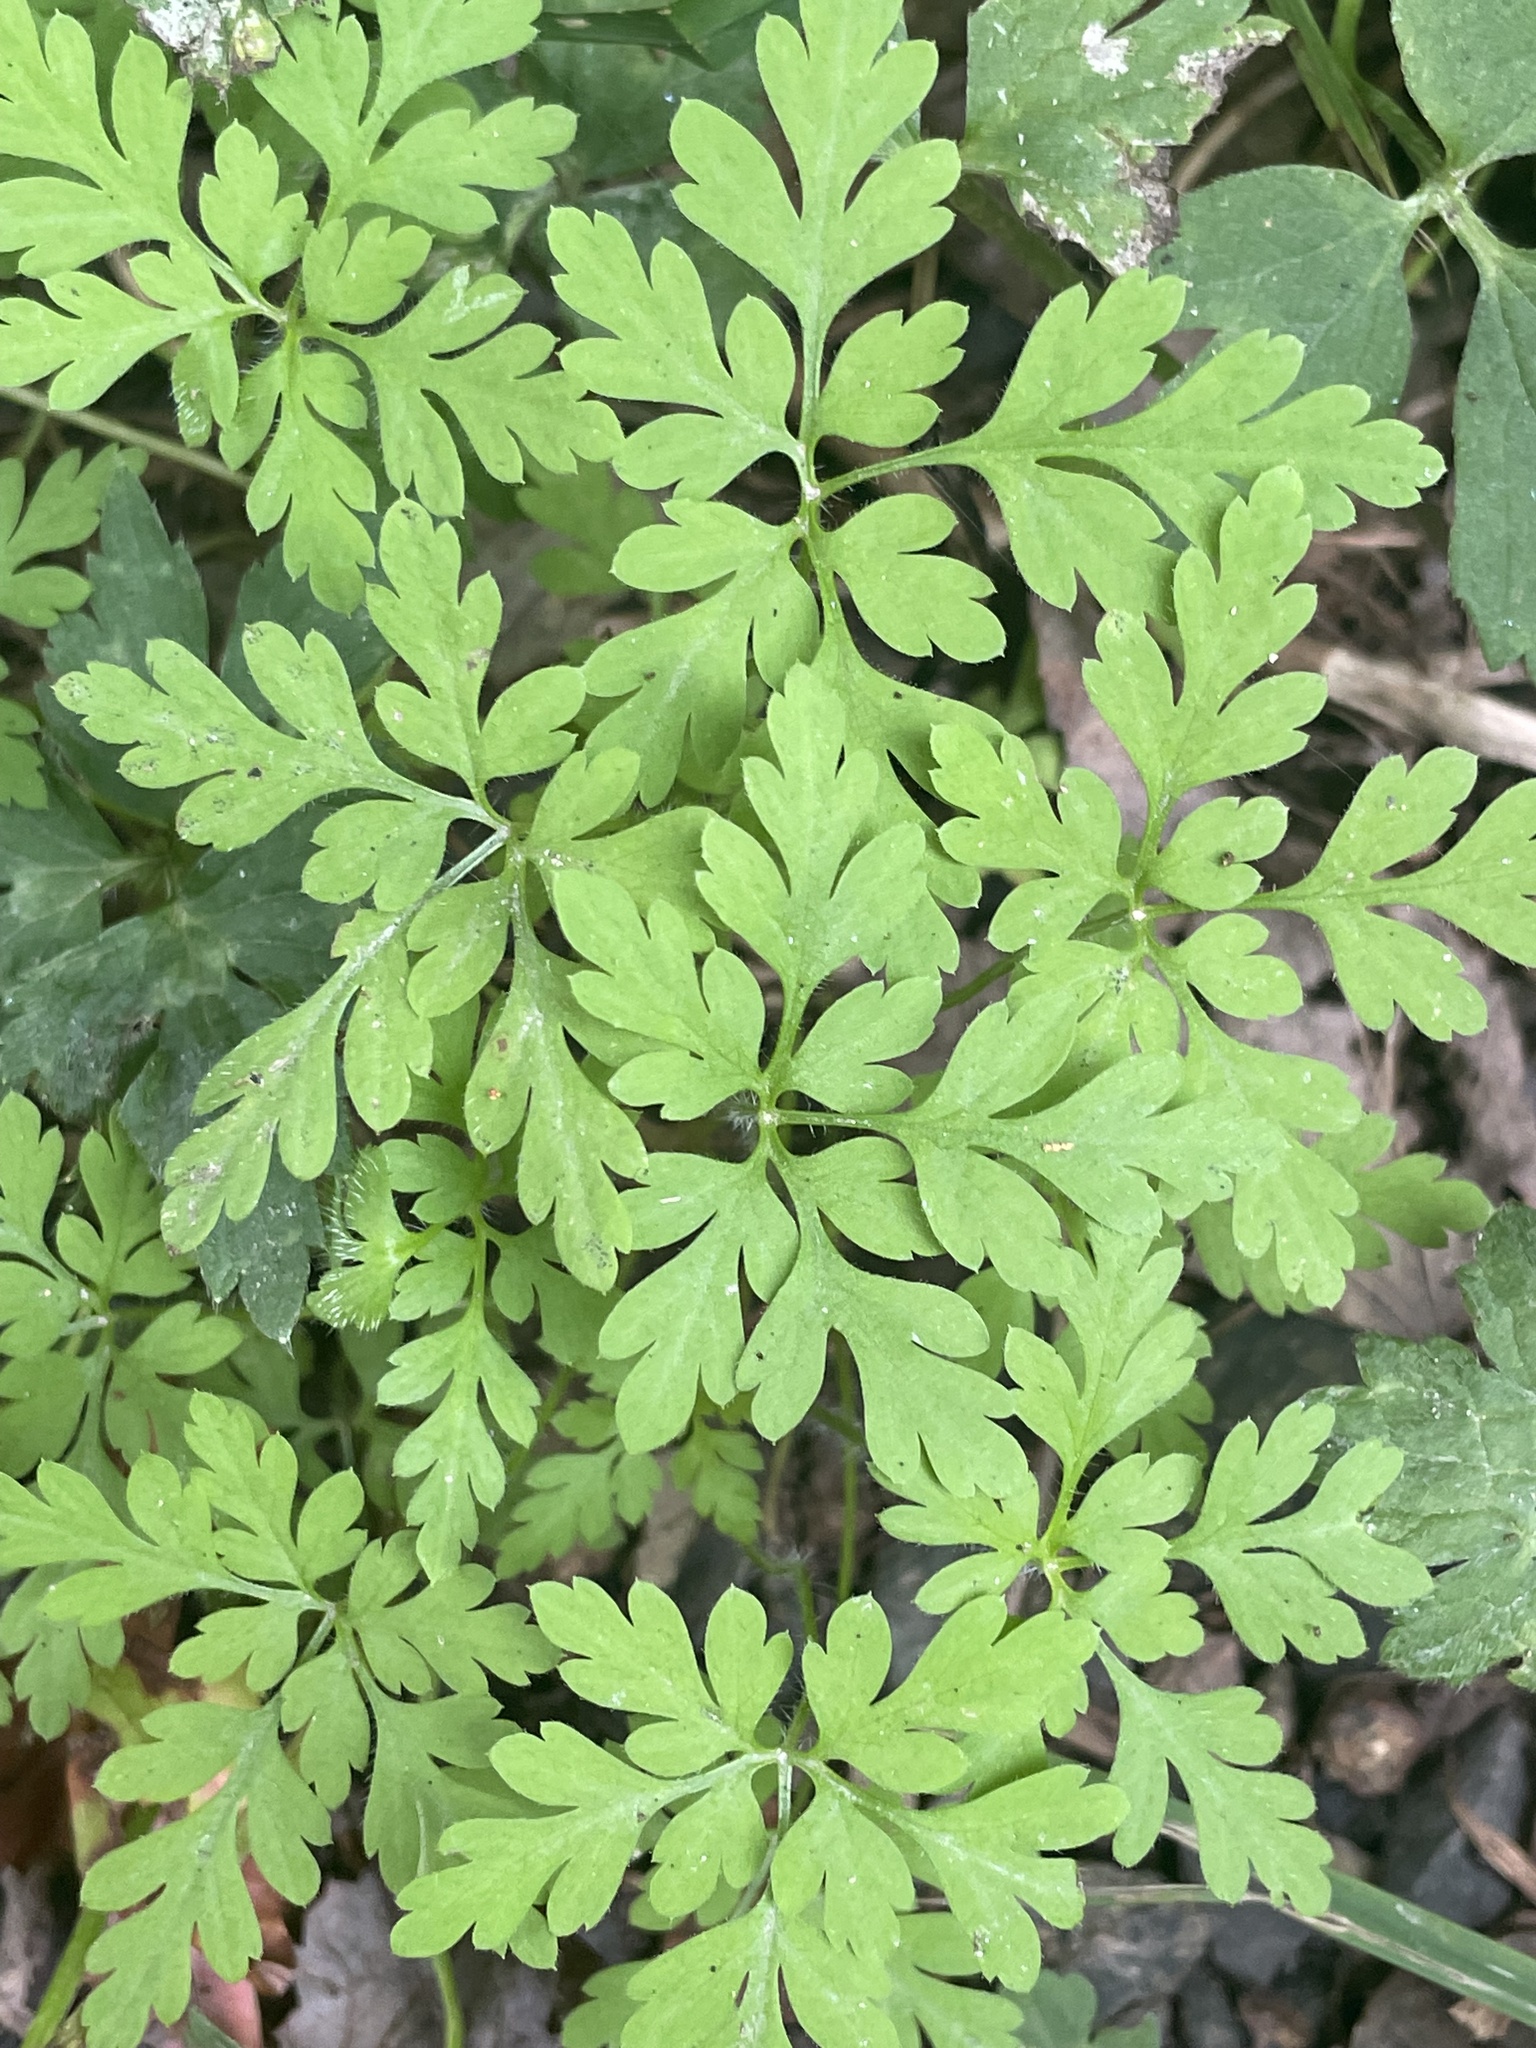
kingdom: Plantae
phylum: Tracheophyta
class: Magnoliopsida
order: Geraniales
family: Geraniaceae
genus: Geranium
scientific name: Geranium robertianum
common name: Herb-robert
